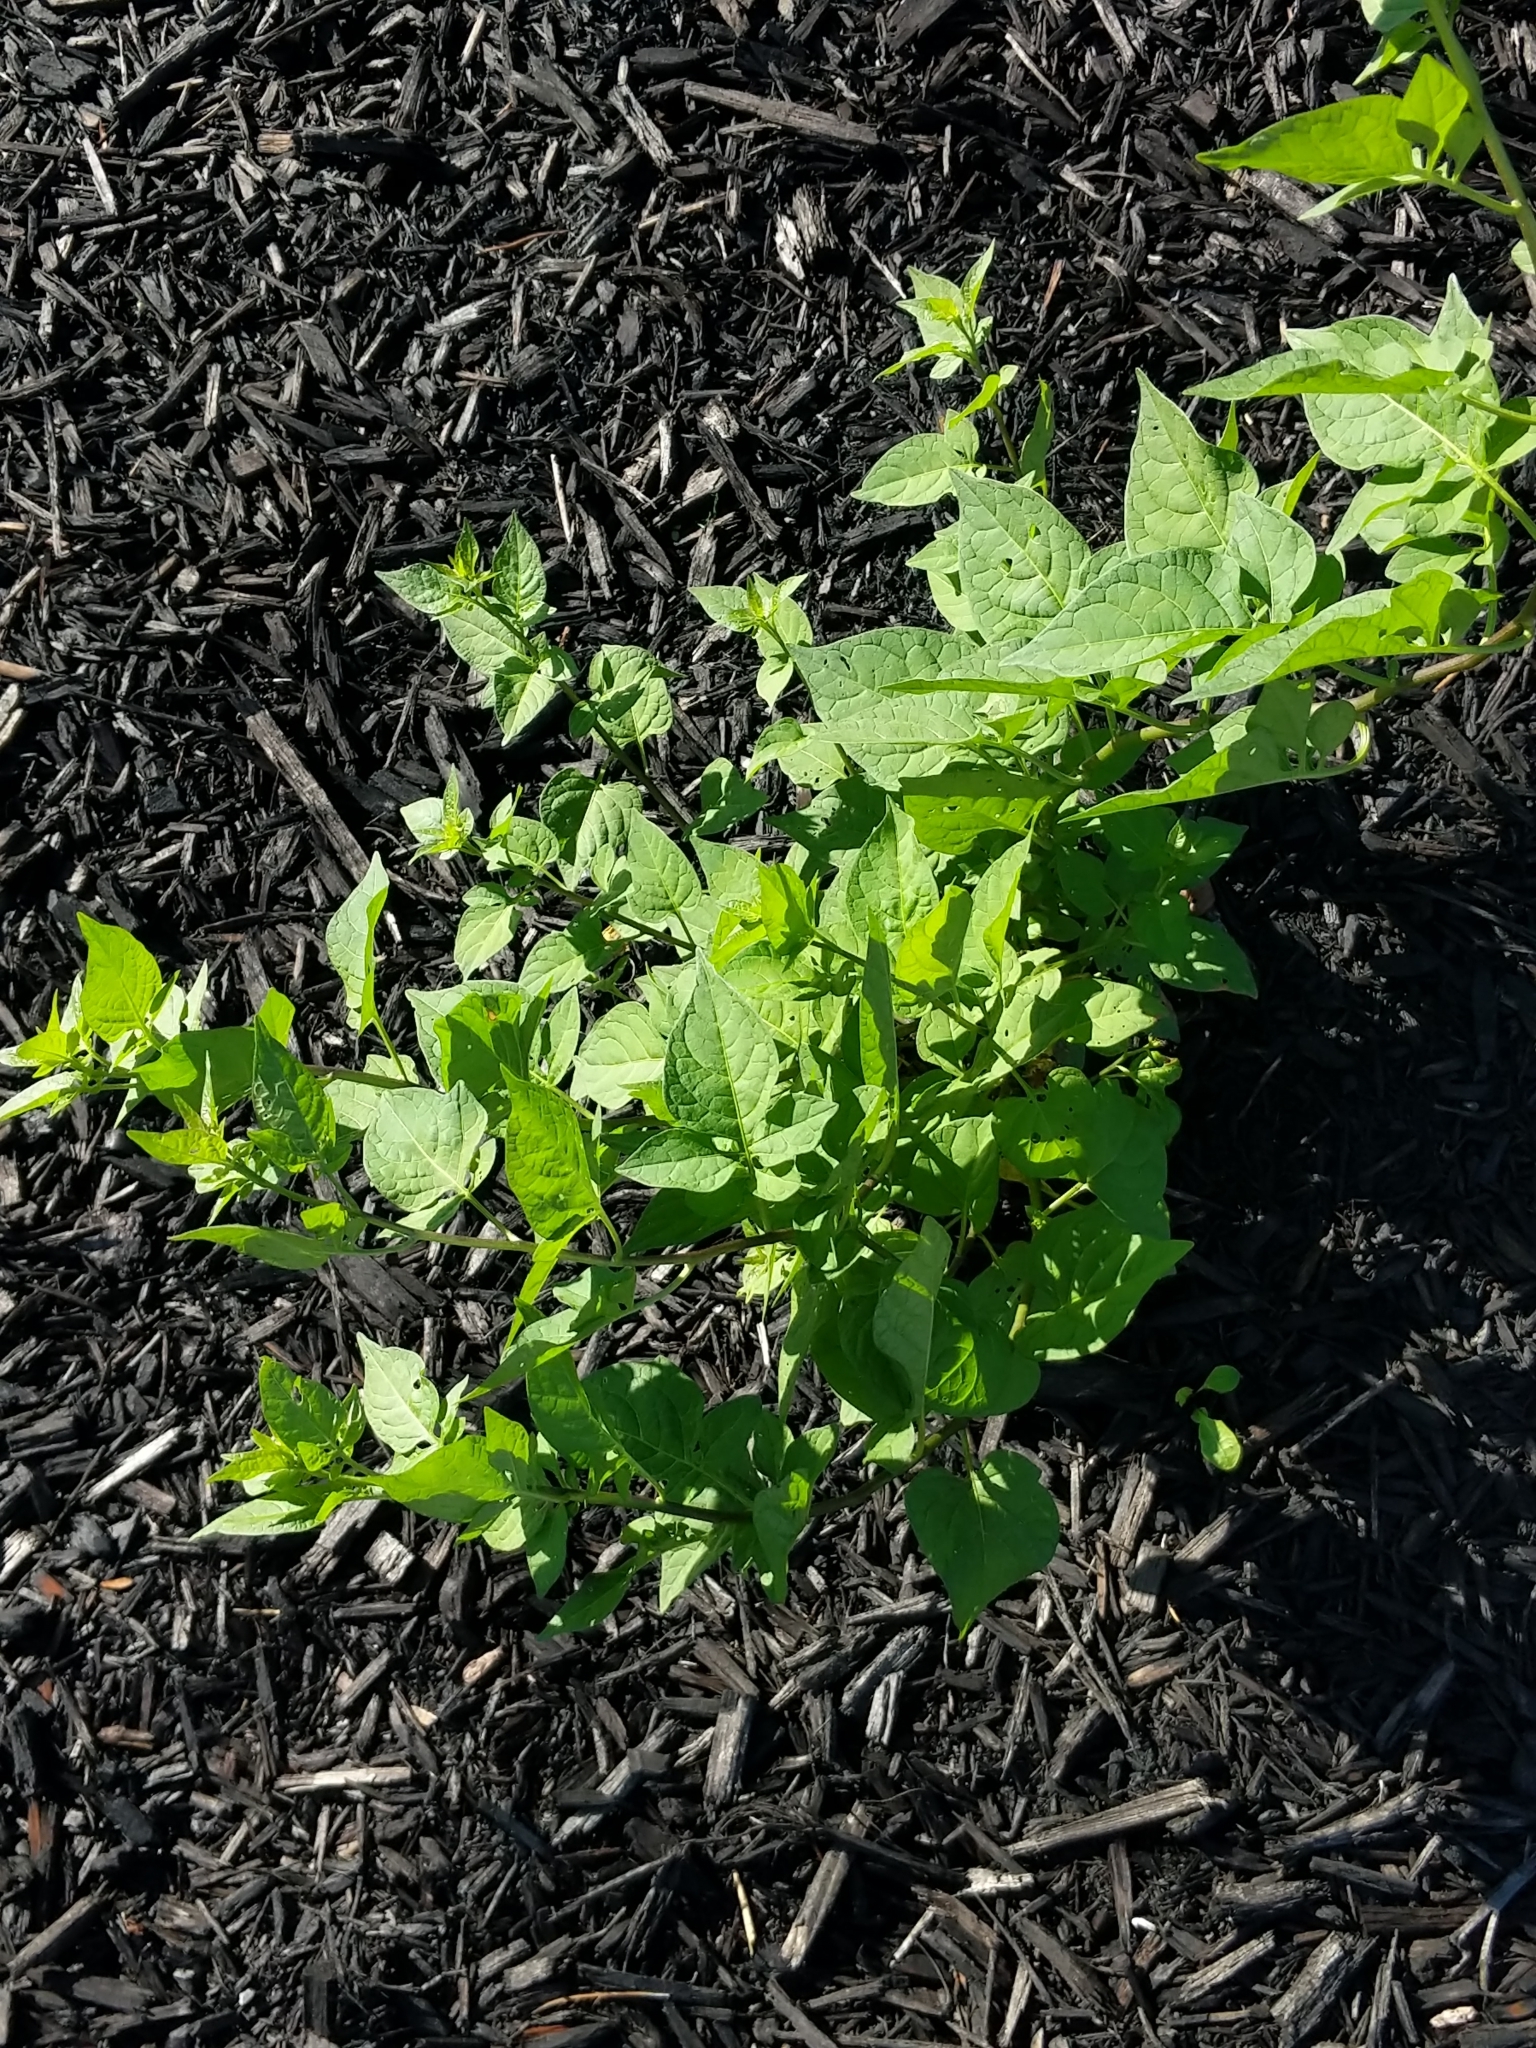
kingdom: Plantae
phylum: Tracheophyta
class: Magnoliopsida
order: Solanales
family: Solanaceae
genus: Solanum
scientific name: Solanum dulcamara
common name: Climbing nightshade
